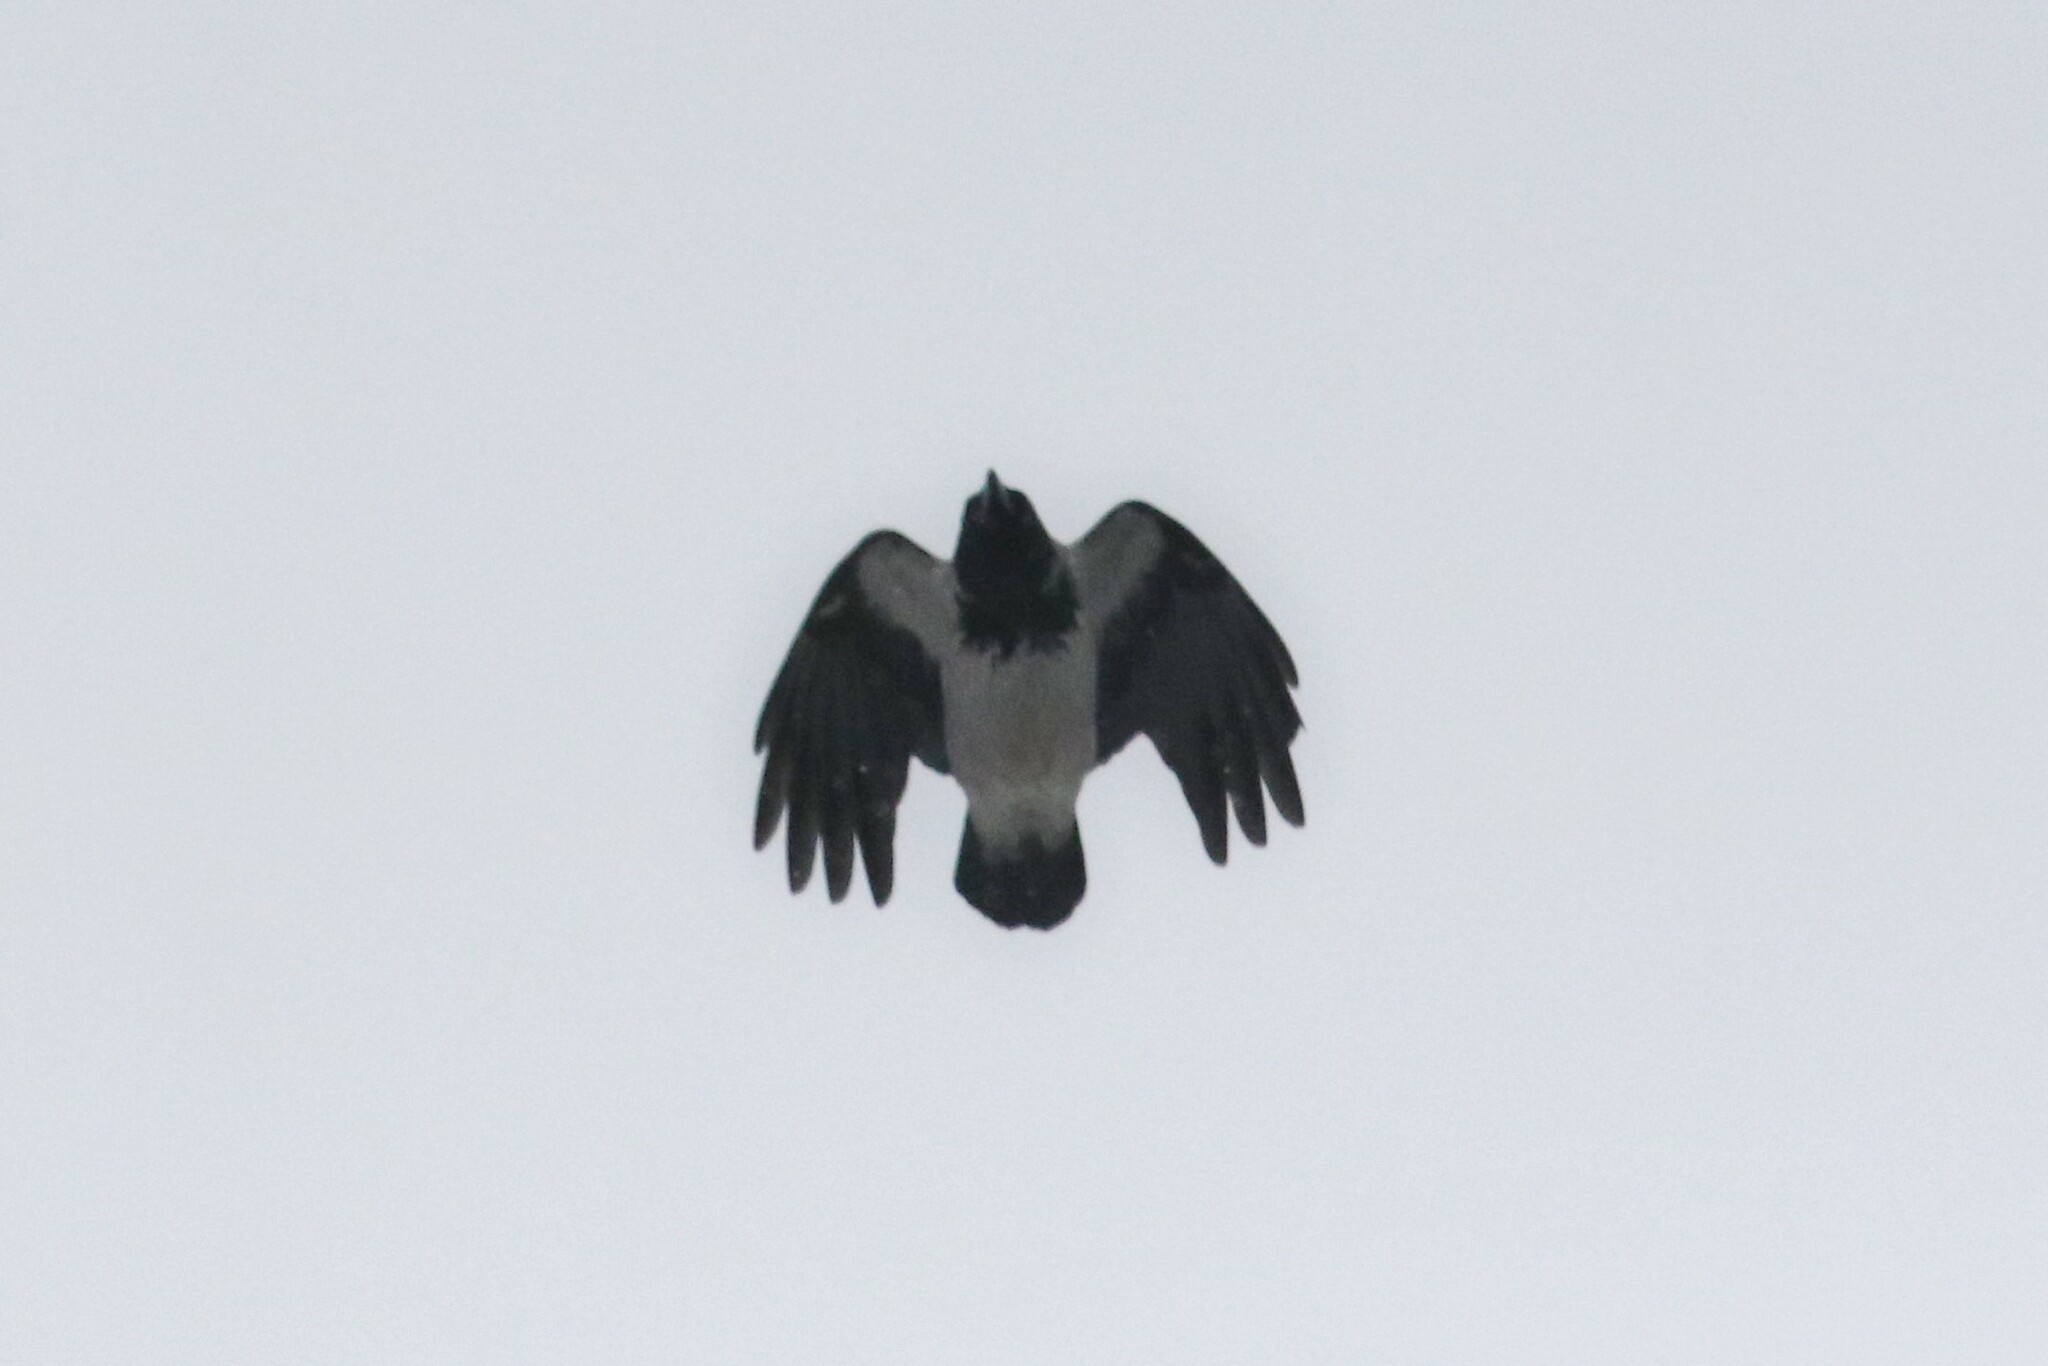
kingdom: Animalia
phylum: Chordata
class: Aves
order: Passeriformes
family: Corvidae
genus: Corvus
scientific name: Corvus cornix
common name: Hooded crow
